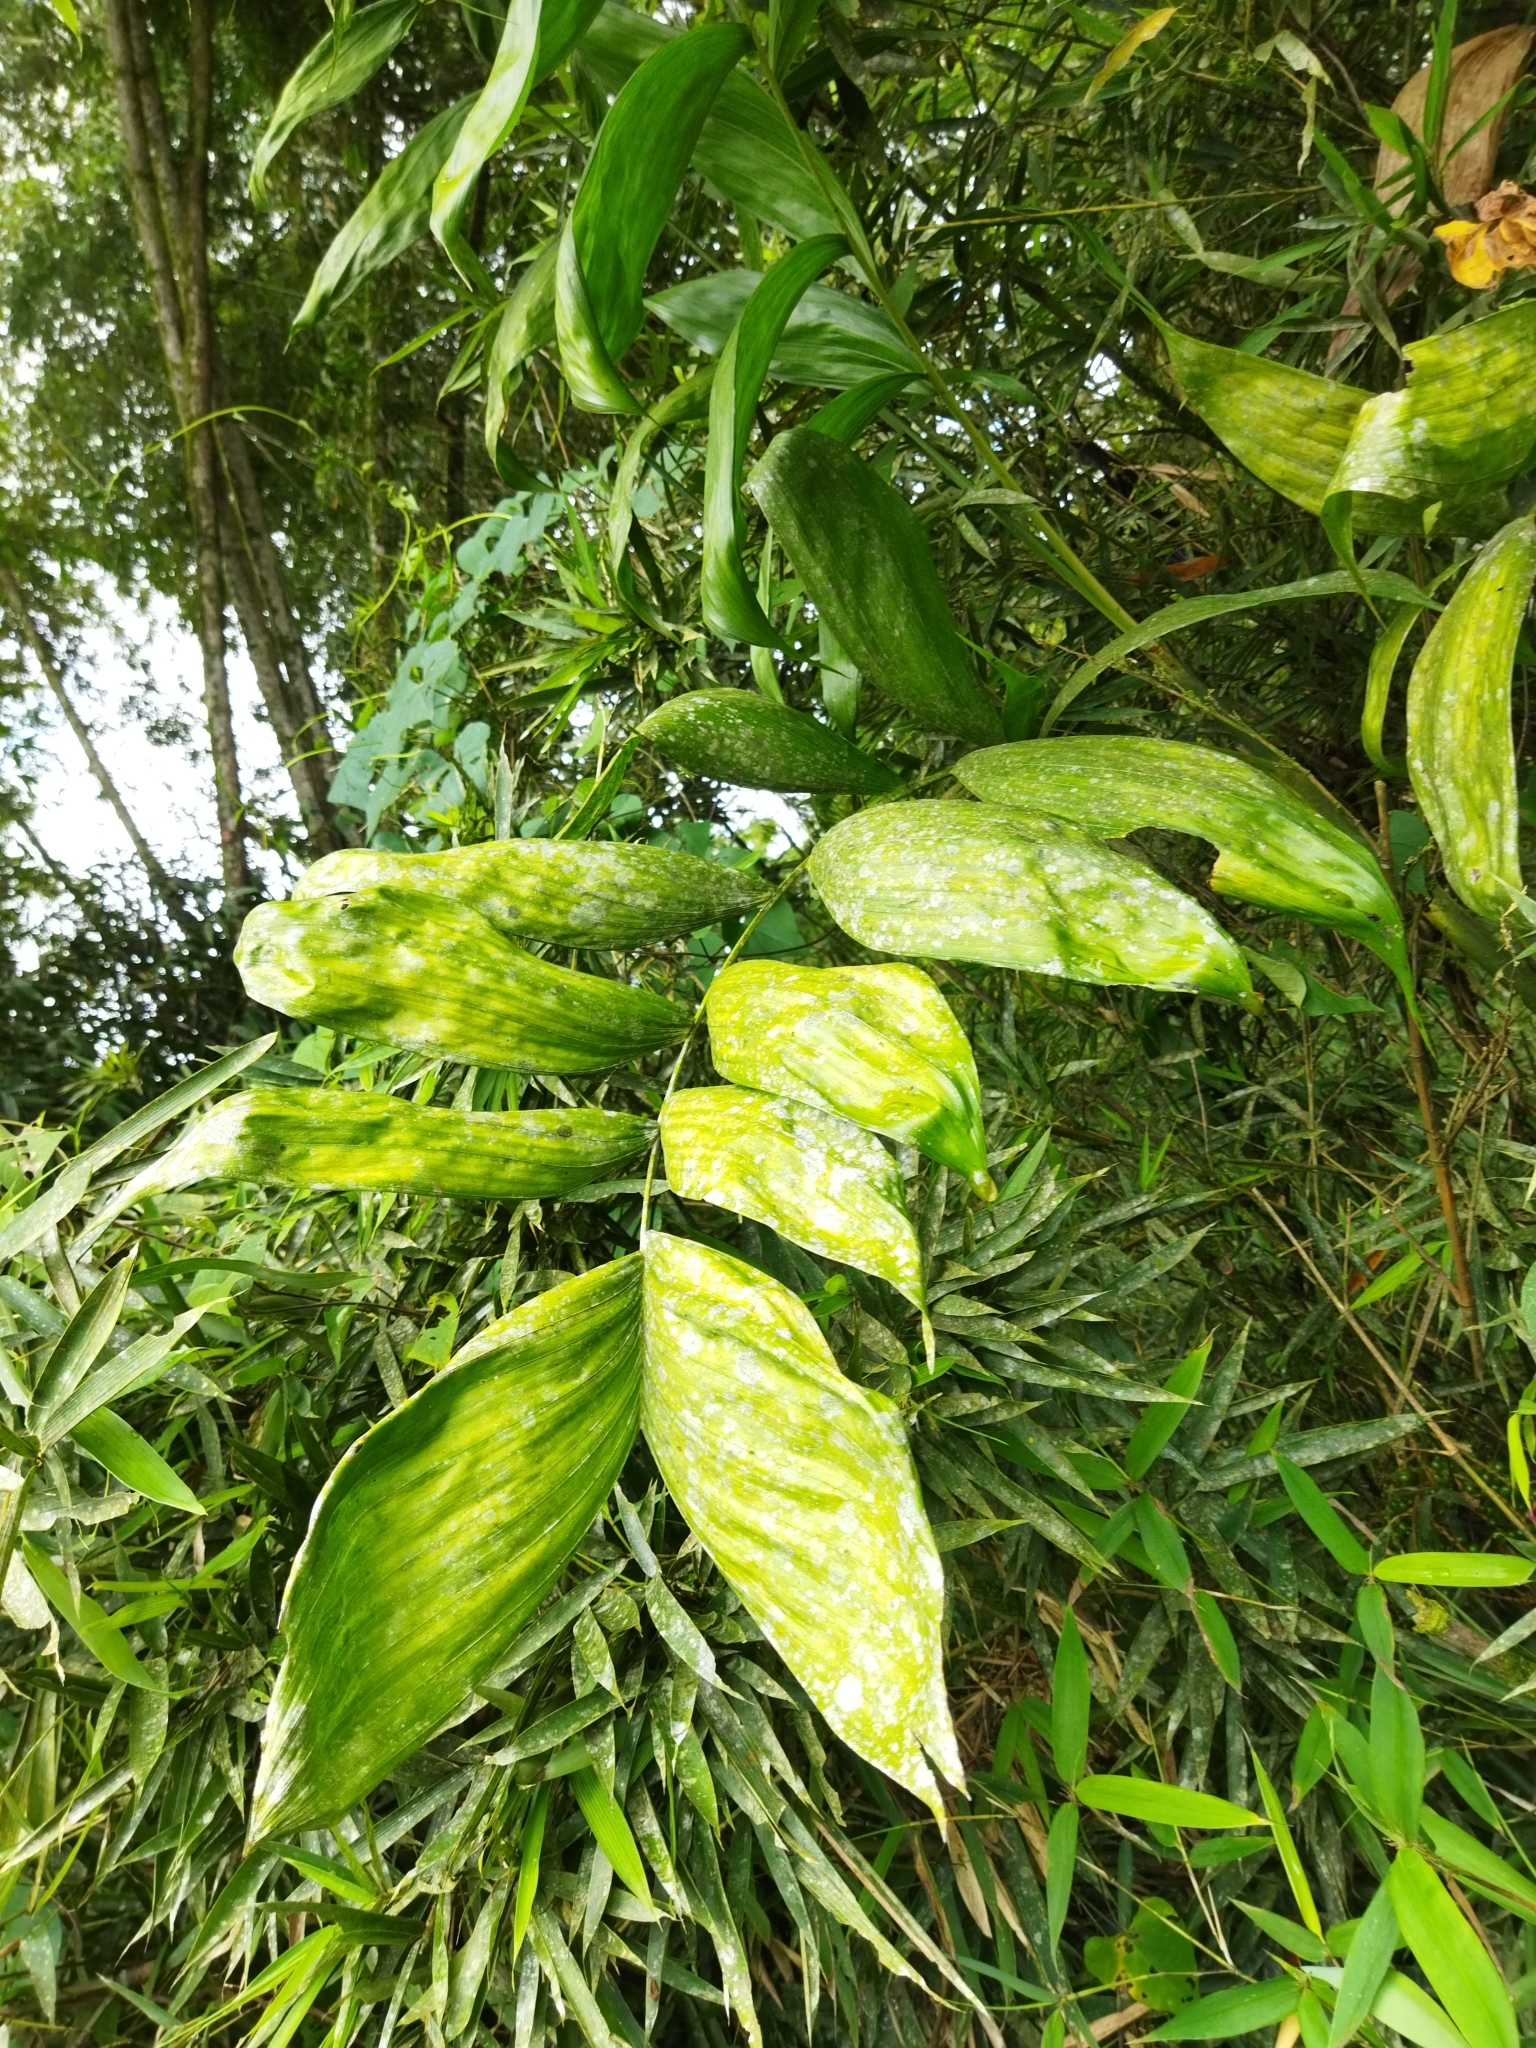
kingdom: Plantae
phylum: Tracheophyta
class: Liliopsida
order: Arecales
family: Arecaceae
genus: Chamaedorea
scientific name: Chamaedorea pinnatifrons
